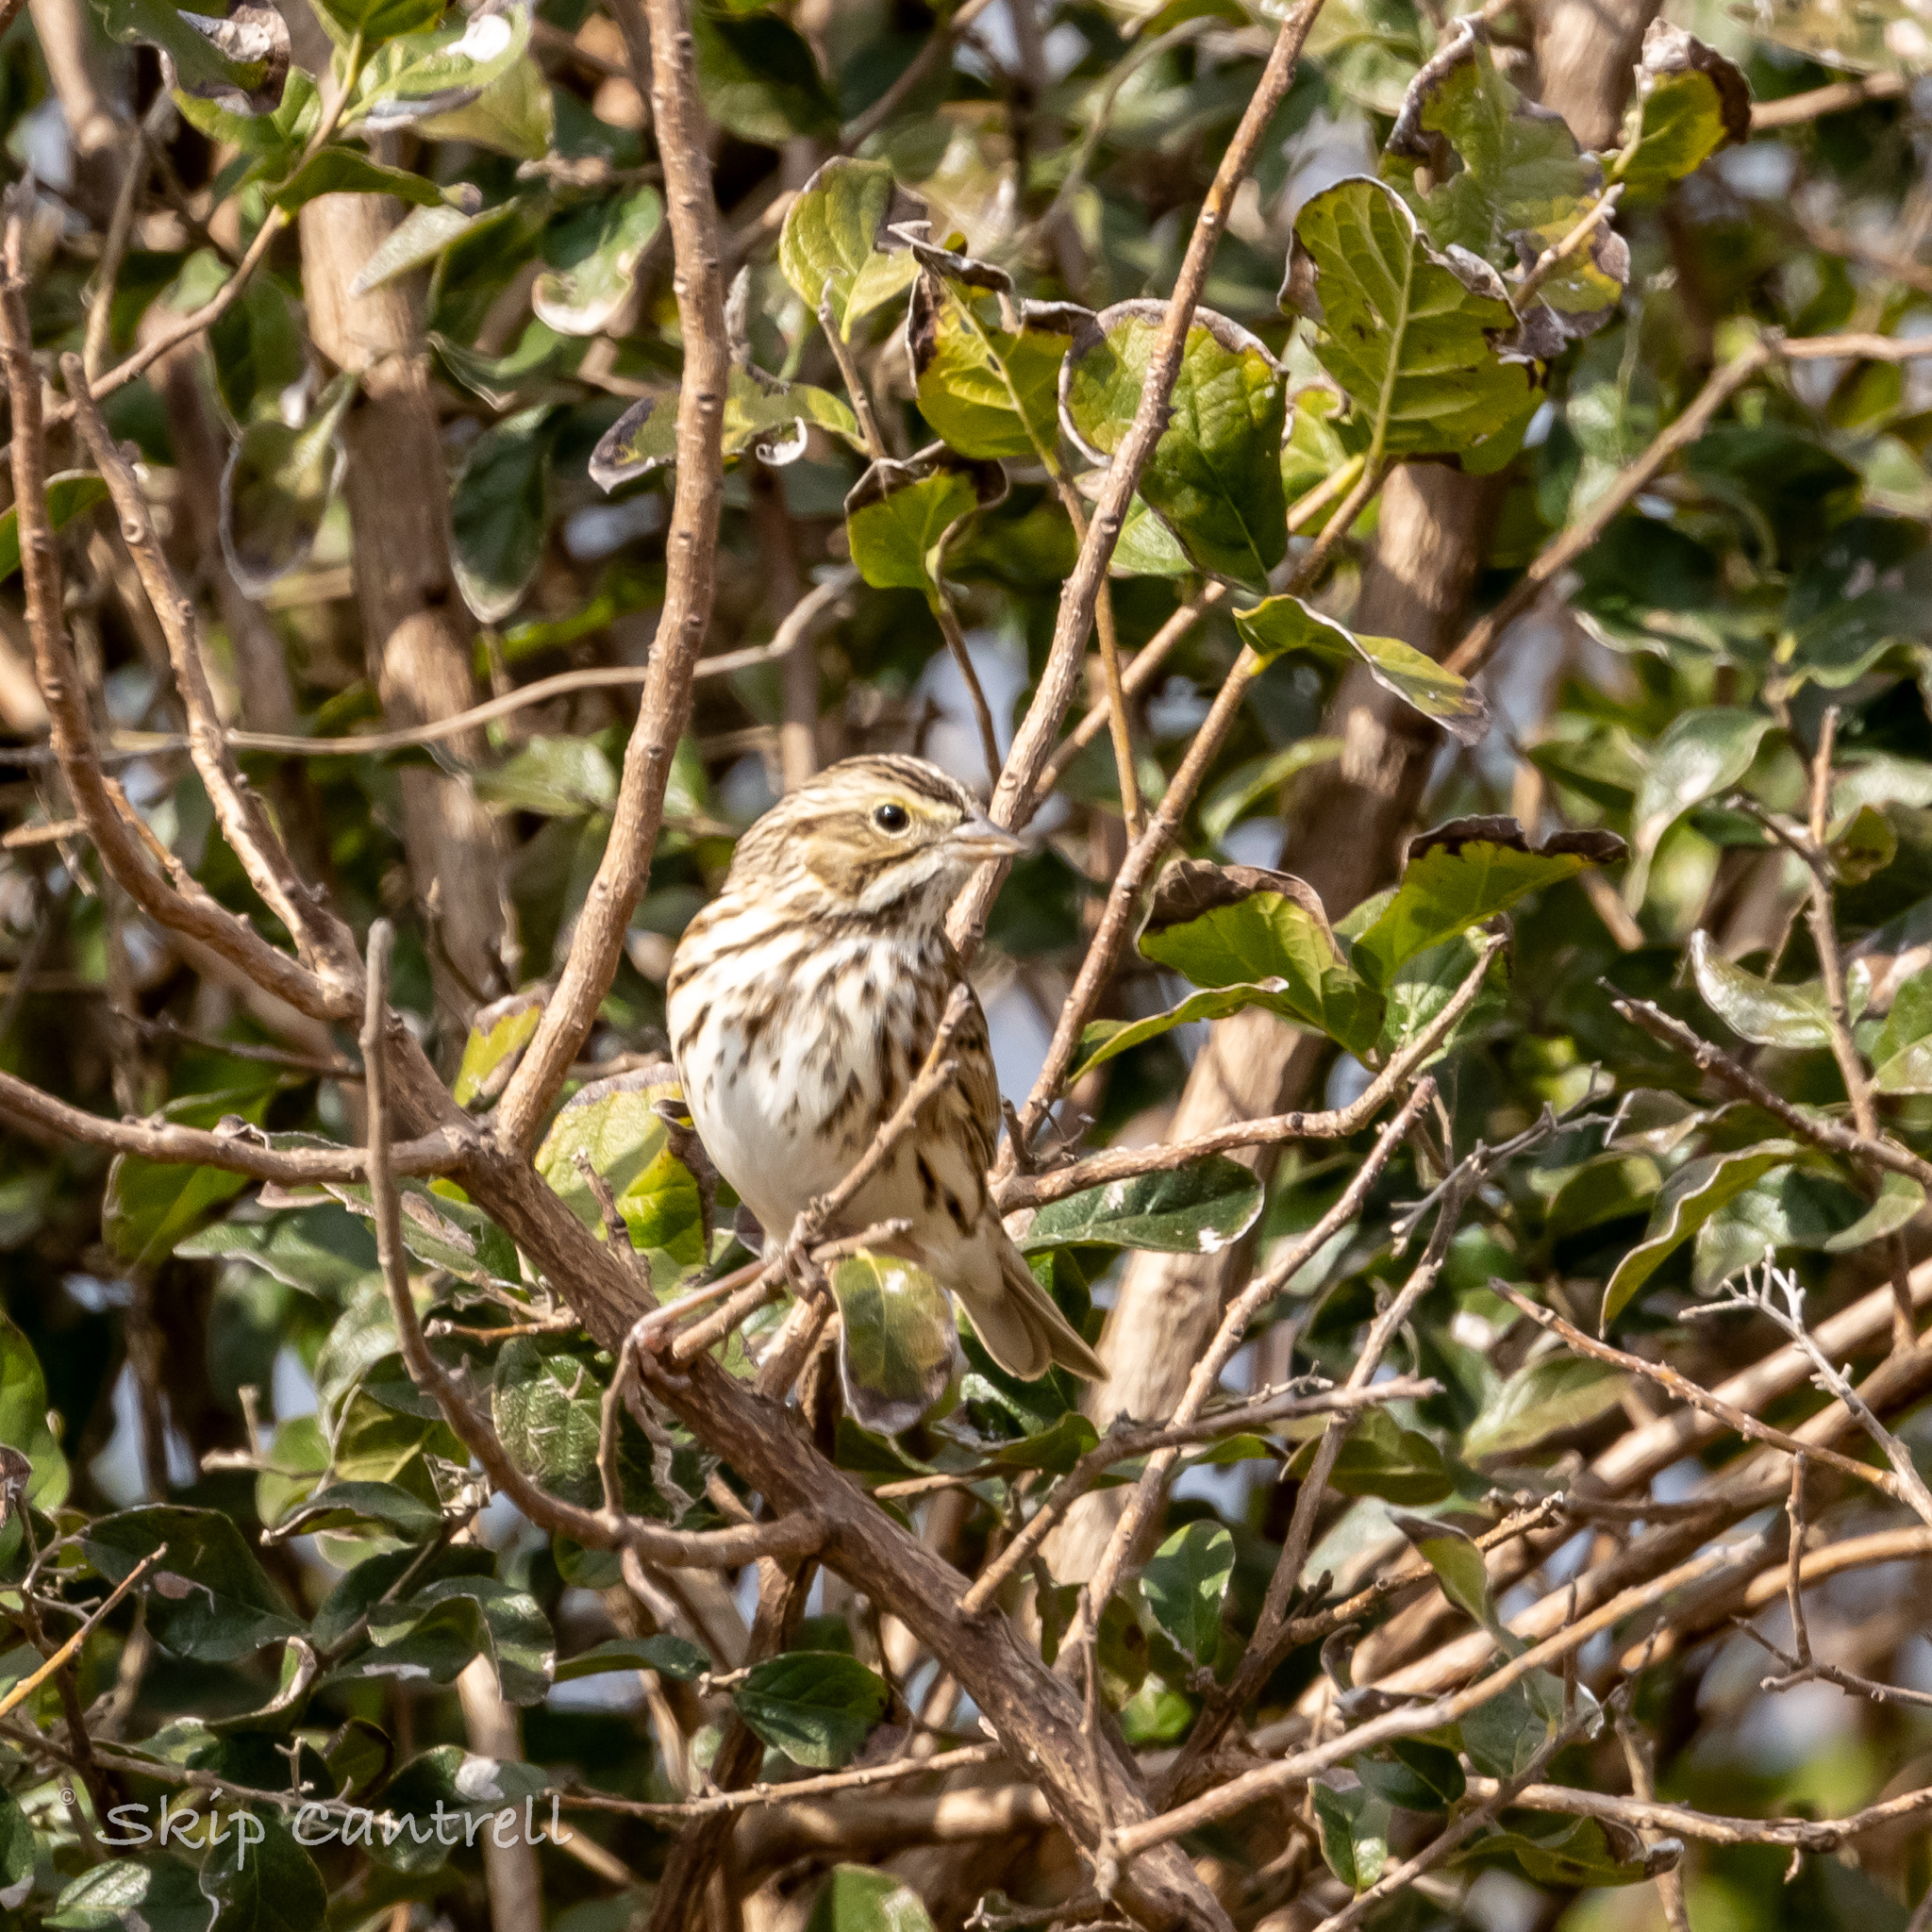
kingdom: Animalia
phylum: Chordata
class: Aves
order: Passeriformes
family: Passerellidae
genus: Passerculus
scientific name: Passerculus sandwichensis
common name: Savannah sparrow
